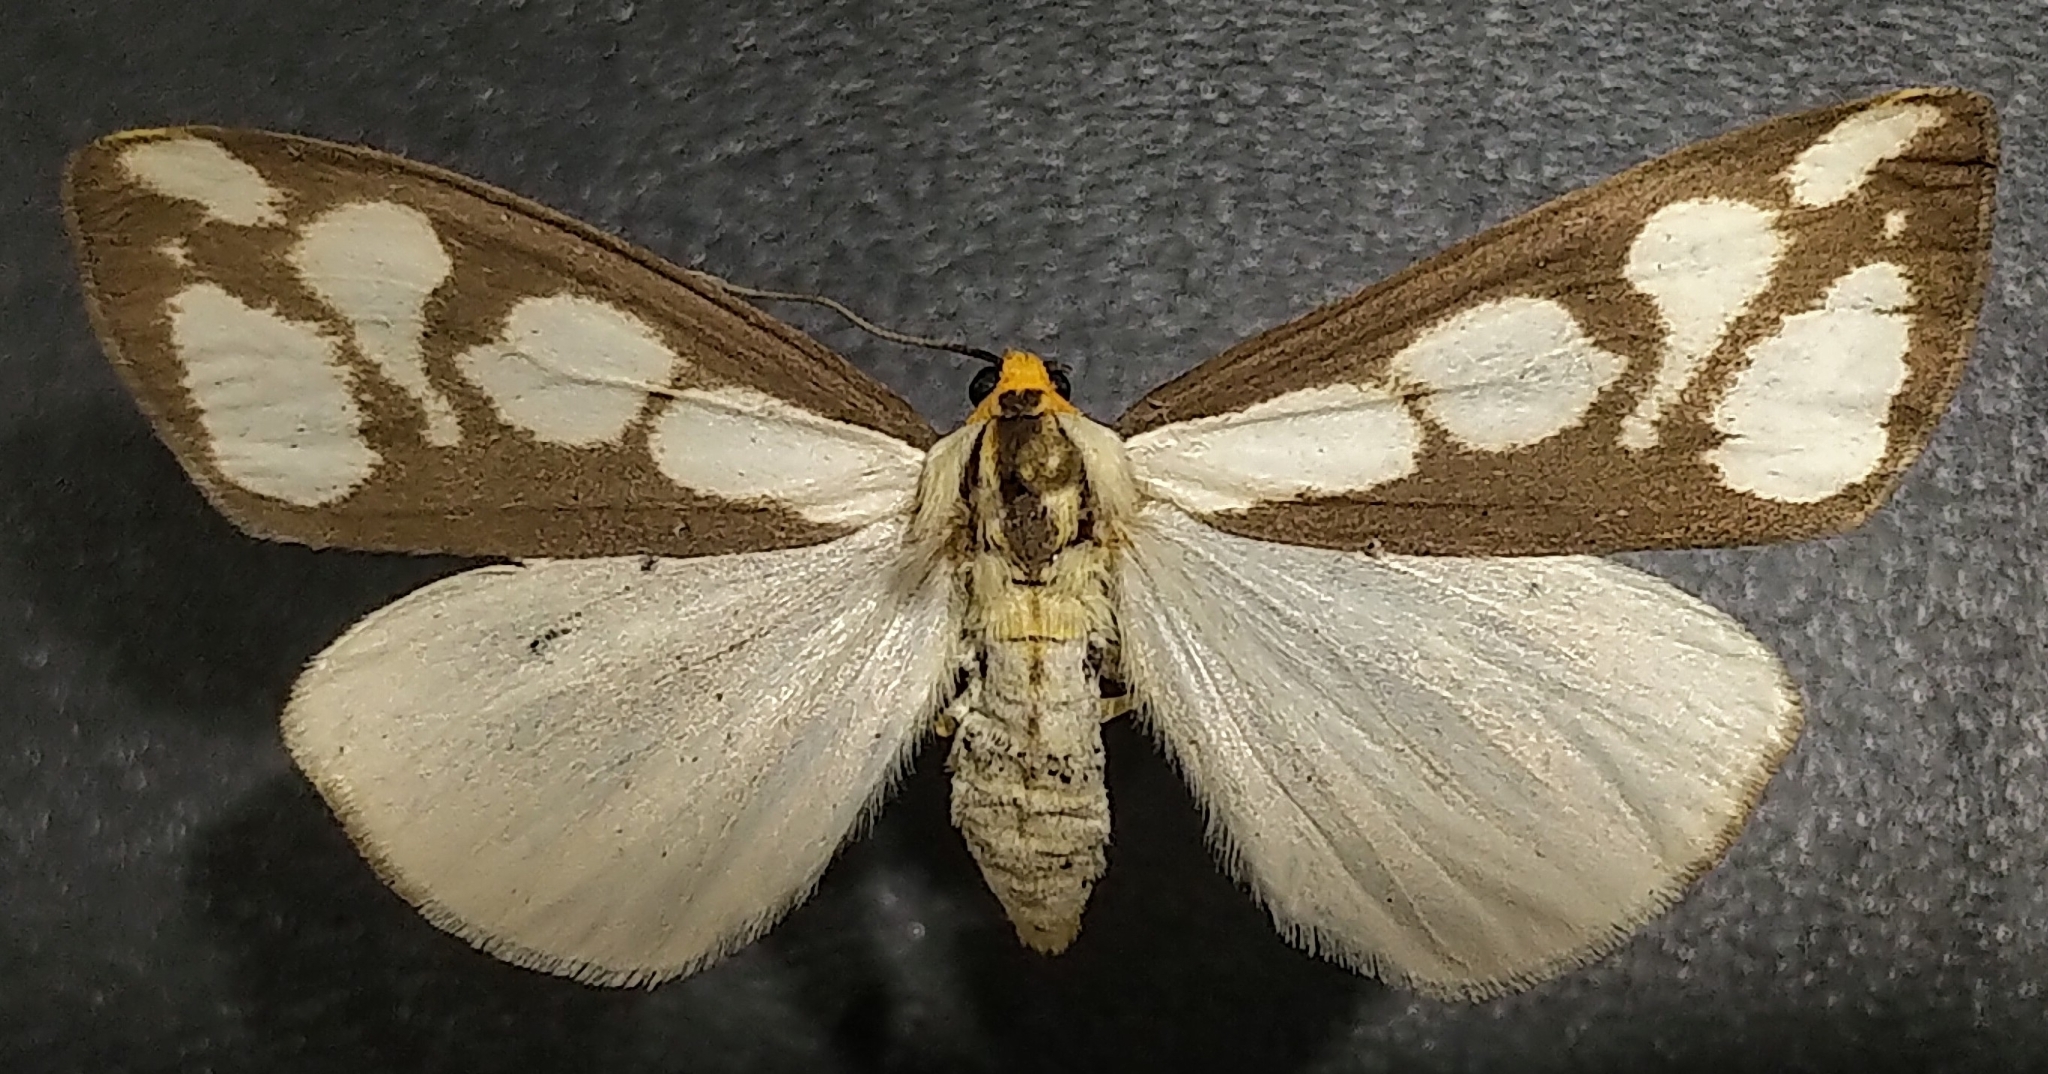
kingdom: Animalia
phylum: Arthropoda
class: Insecta
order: Lepidoptera
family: Erebidae
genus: Haploa
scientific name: Haploa lecontei
